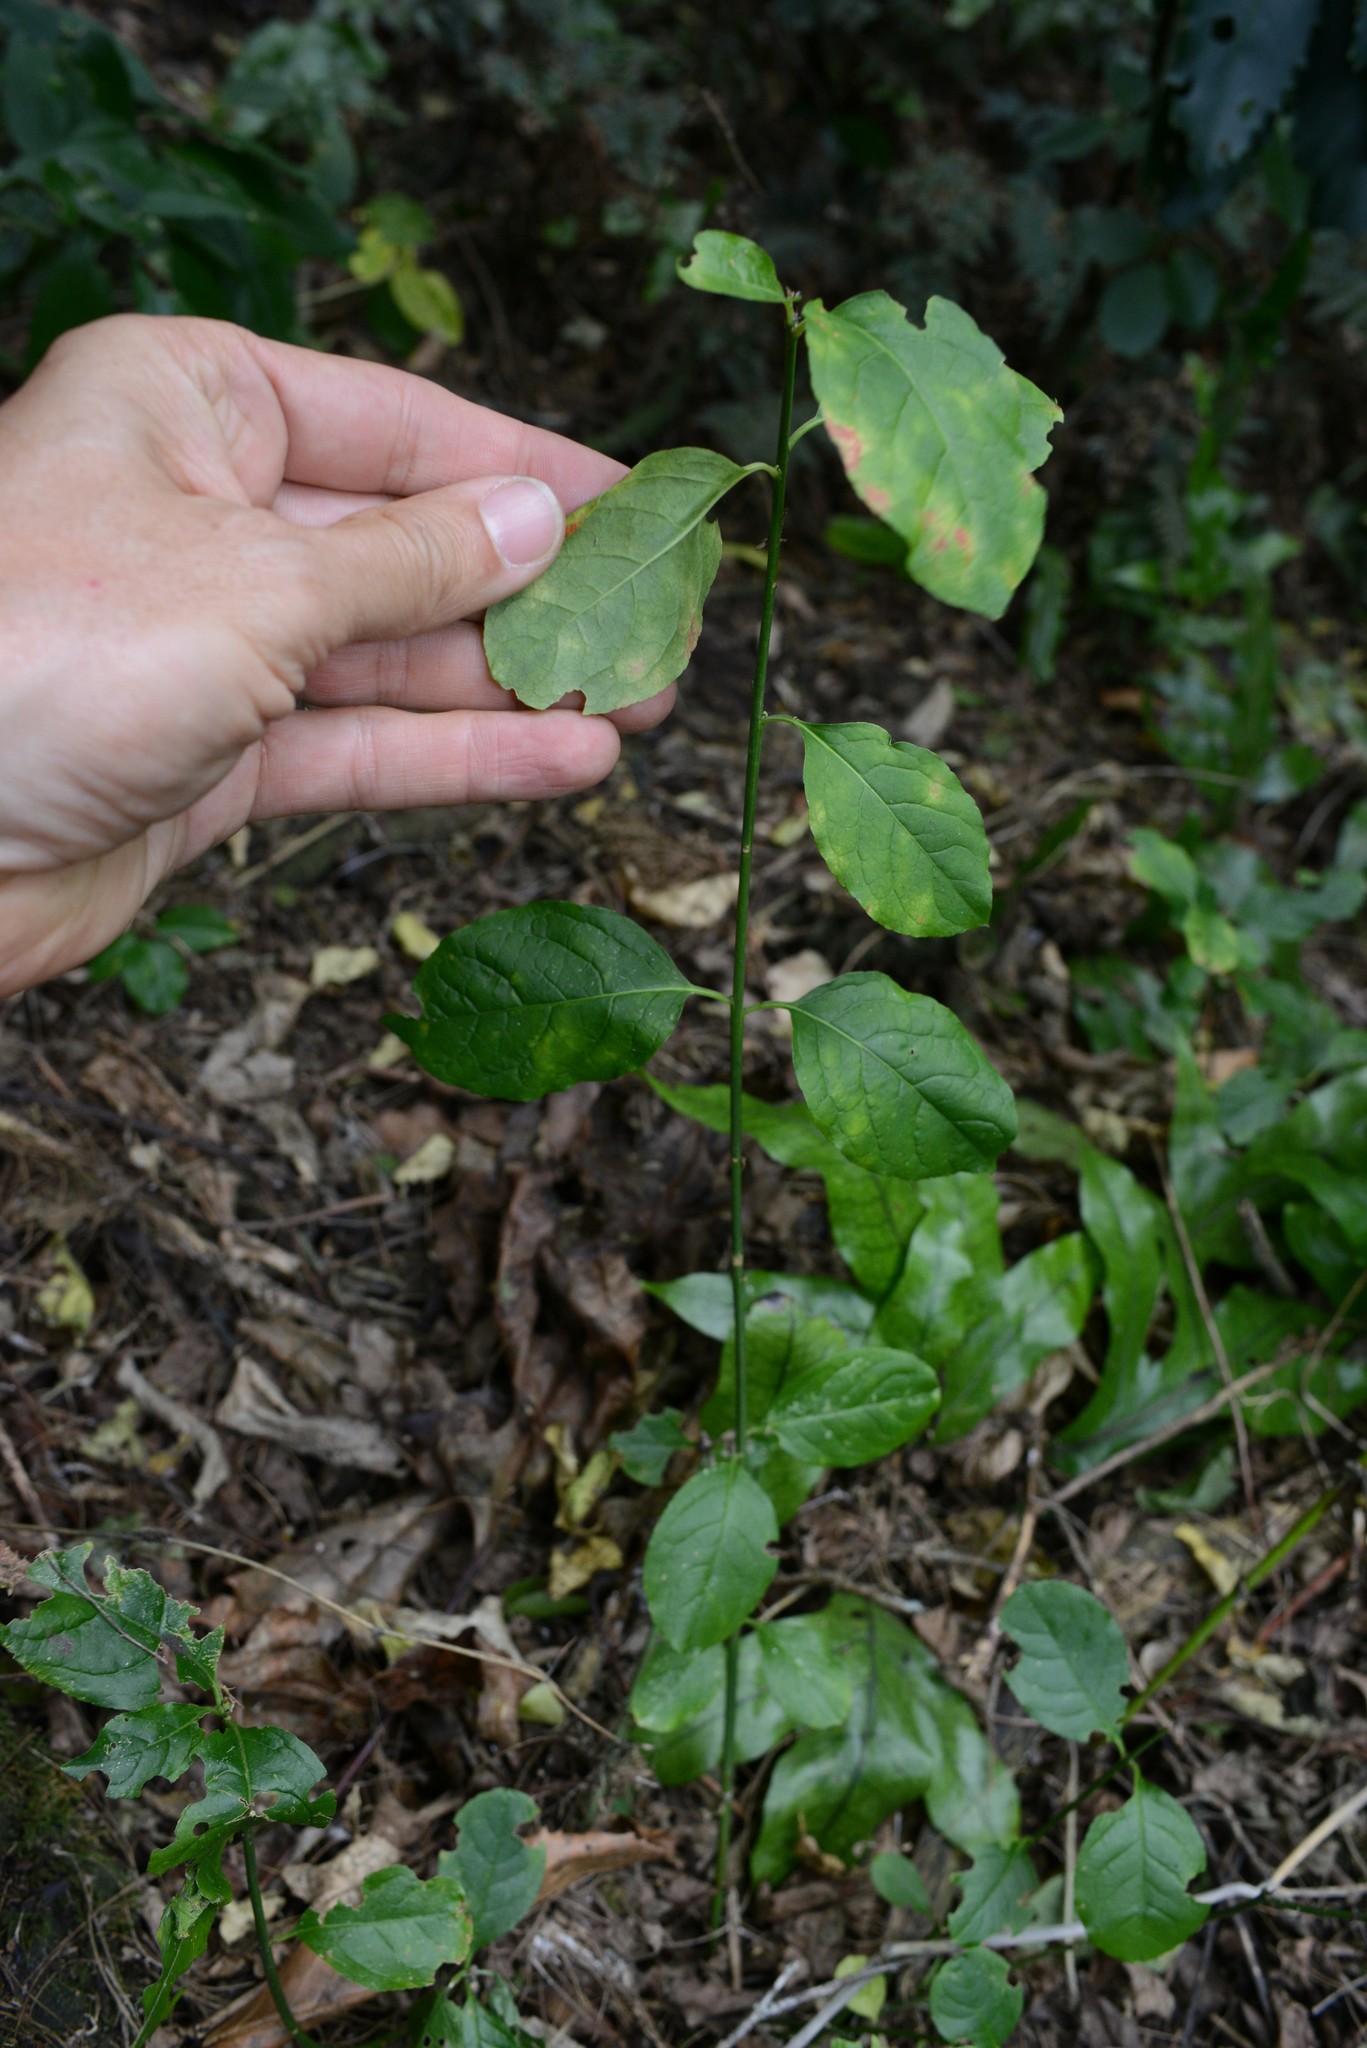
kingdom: Plantae
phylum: Tracheophyta
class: Magnoliopsida
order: Celastrales
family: Celastraceae
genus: Euonymus
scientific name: Euonymus europaeus
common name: Spindle
